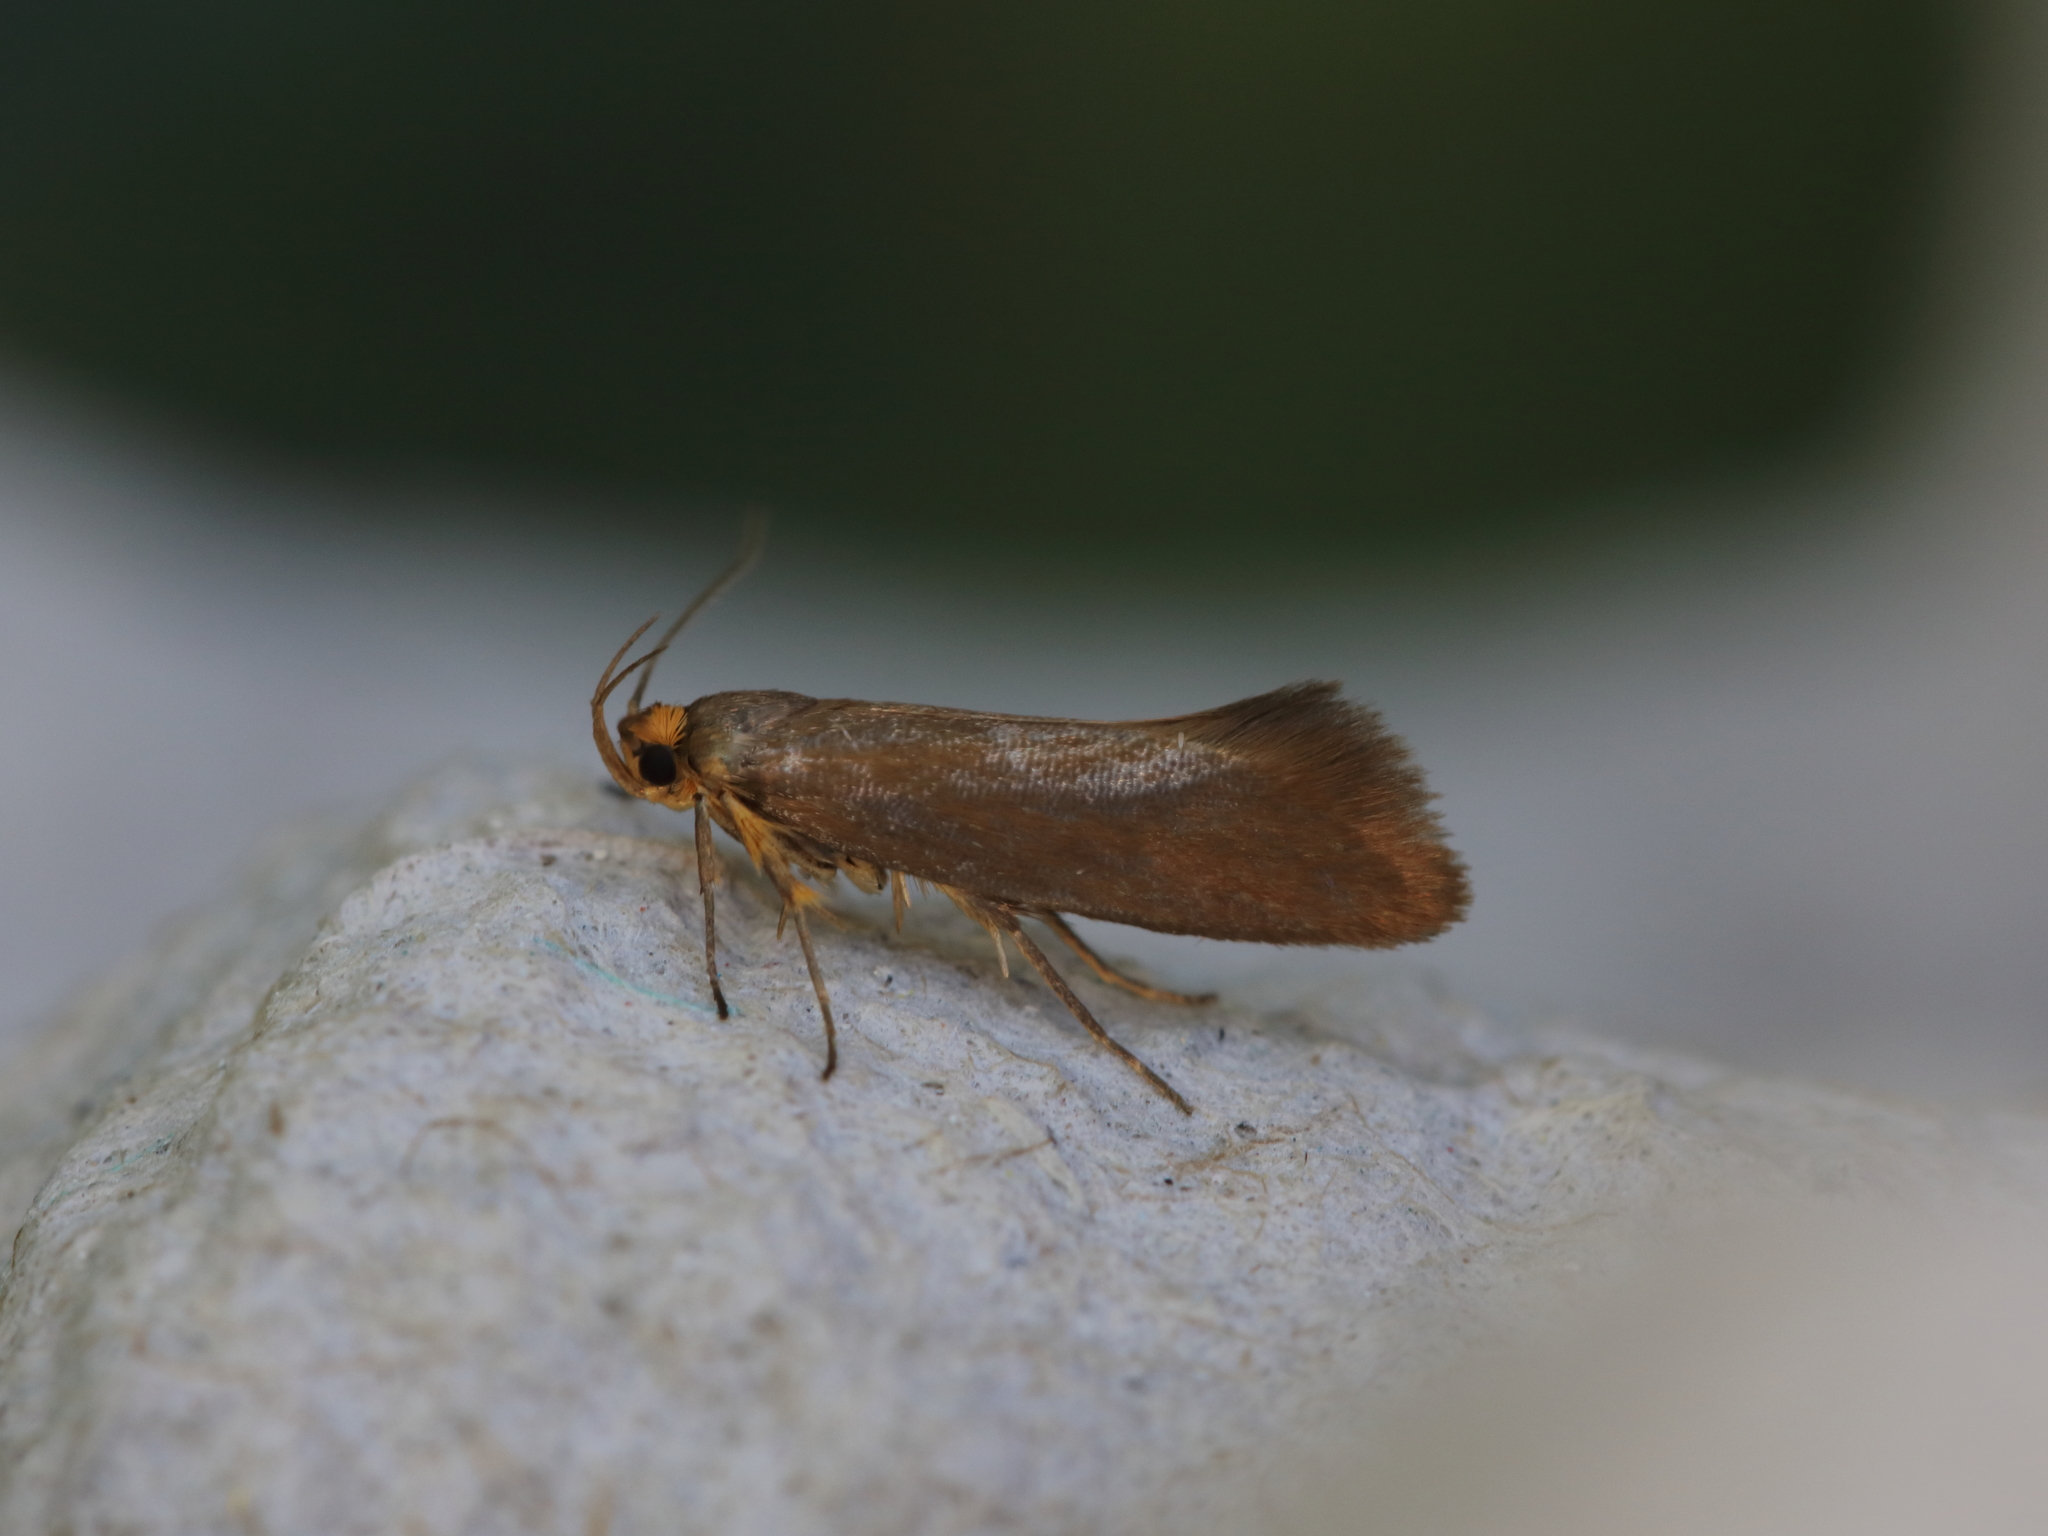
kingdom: Animalia
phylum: Arthropoda
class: Insecta
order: Lepidoptera
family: Oecophoridae
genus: Borkhausenia
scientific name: Borkhausenia Crassa unitella
